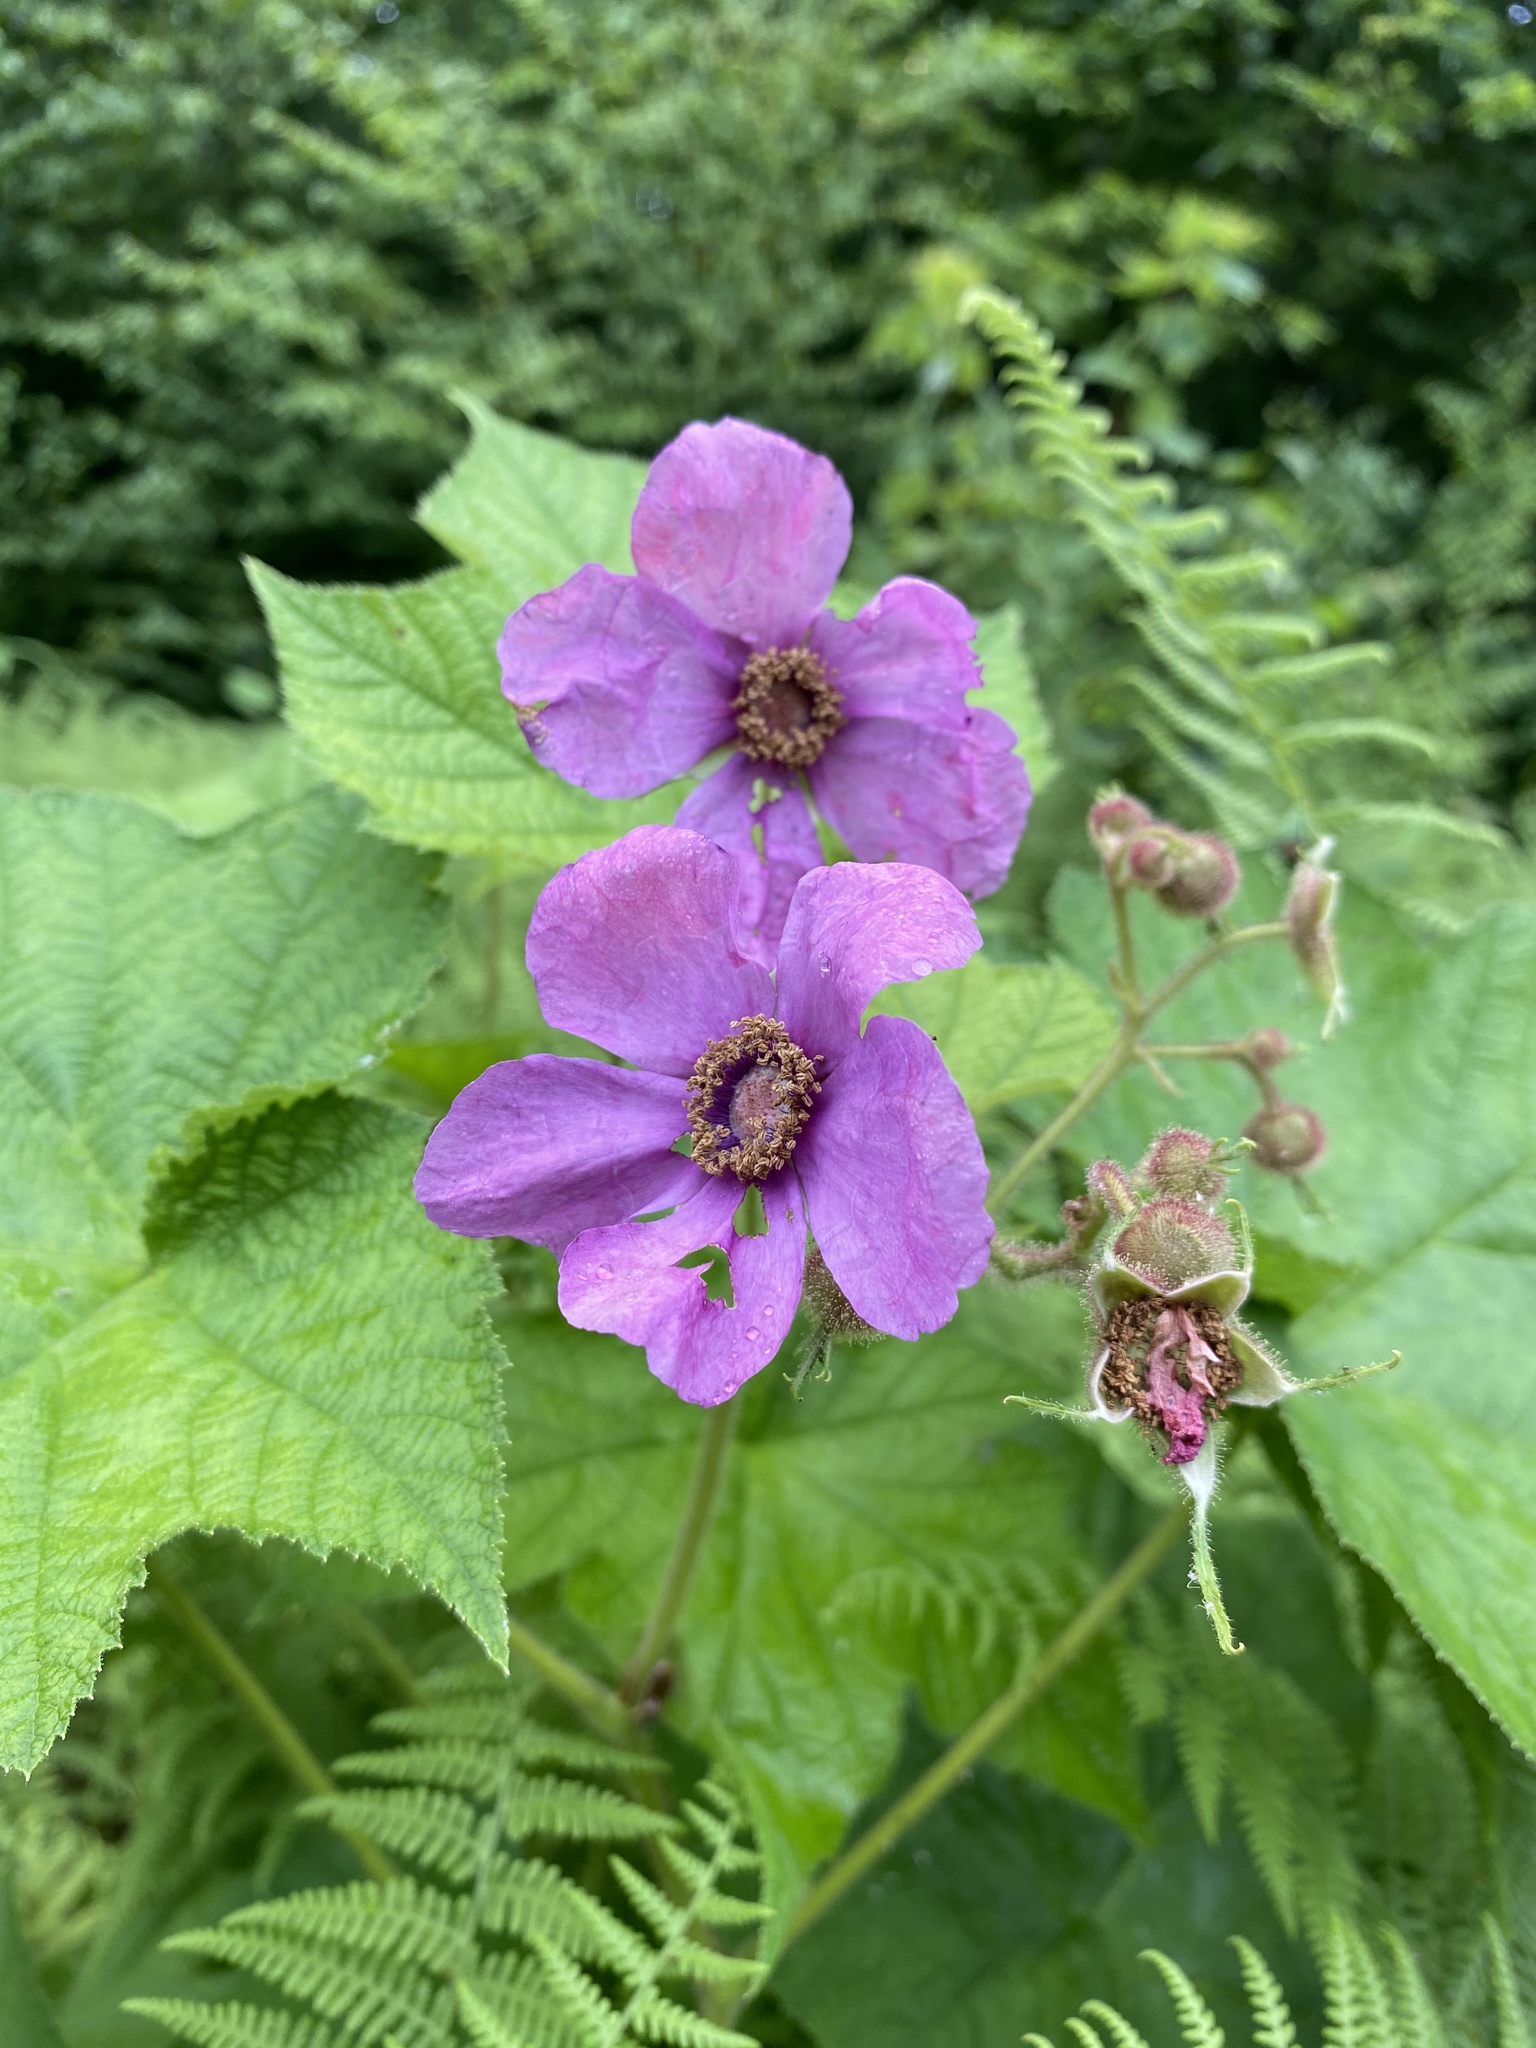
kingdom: Plantae
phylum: Tracheophyta
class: Magnoliopsida
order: Rosales
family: Rosaceae
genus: Rubus
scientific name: Rubus odoratus
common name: Purple-flowered raspberry
